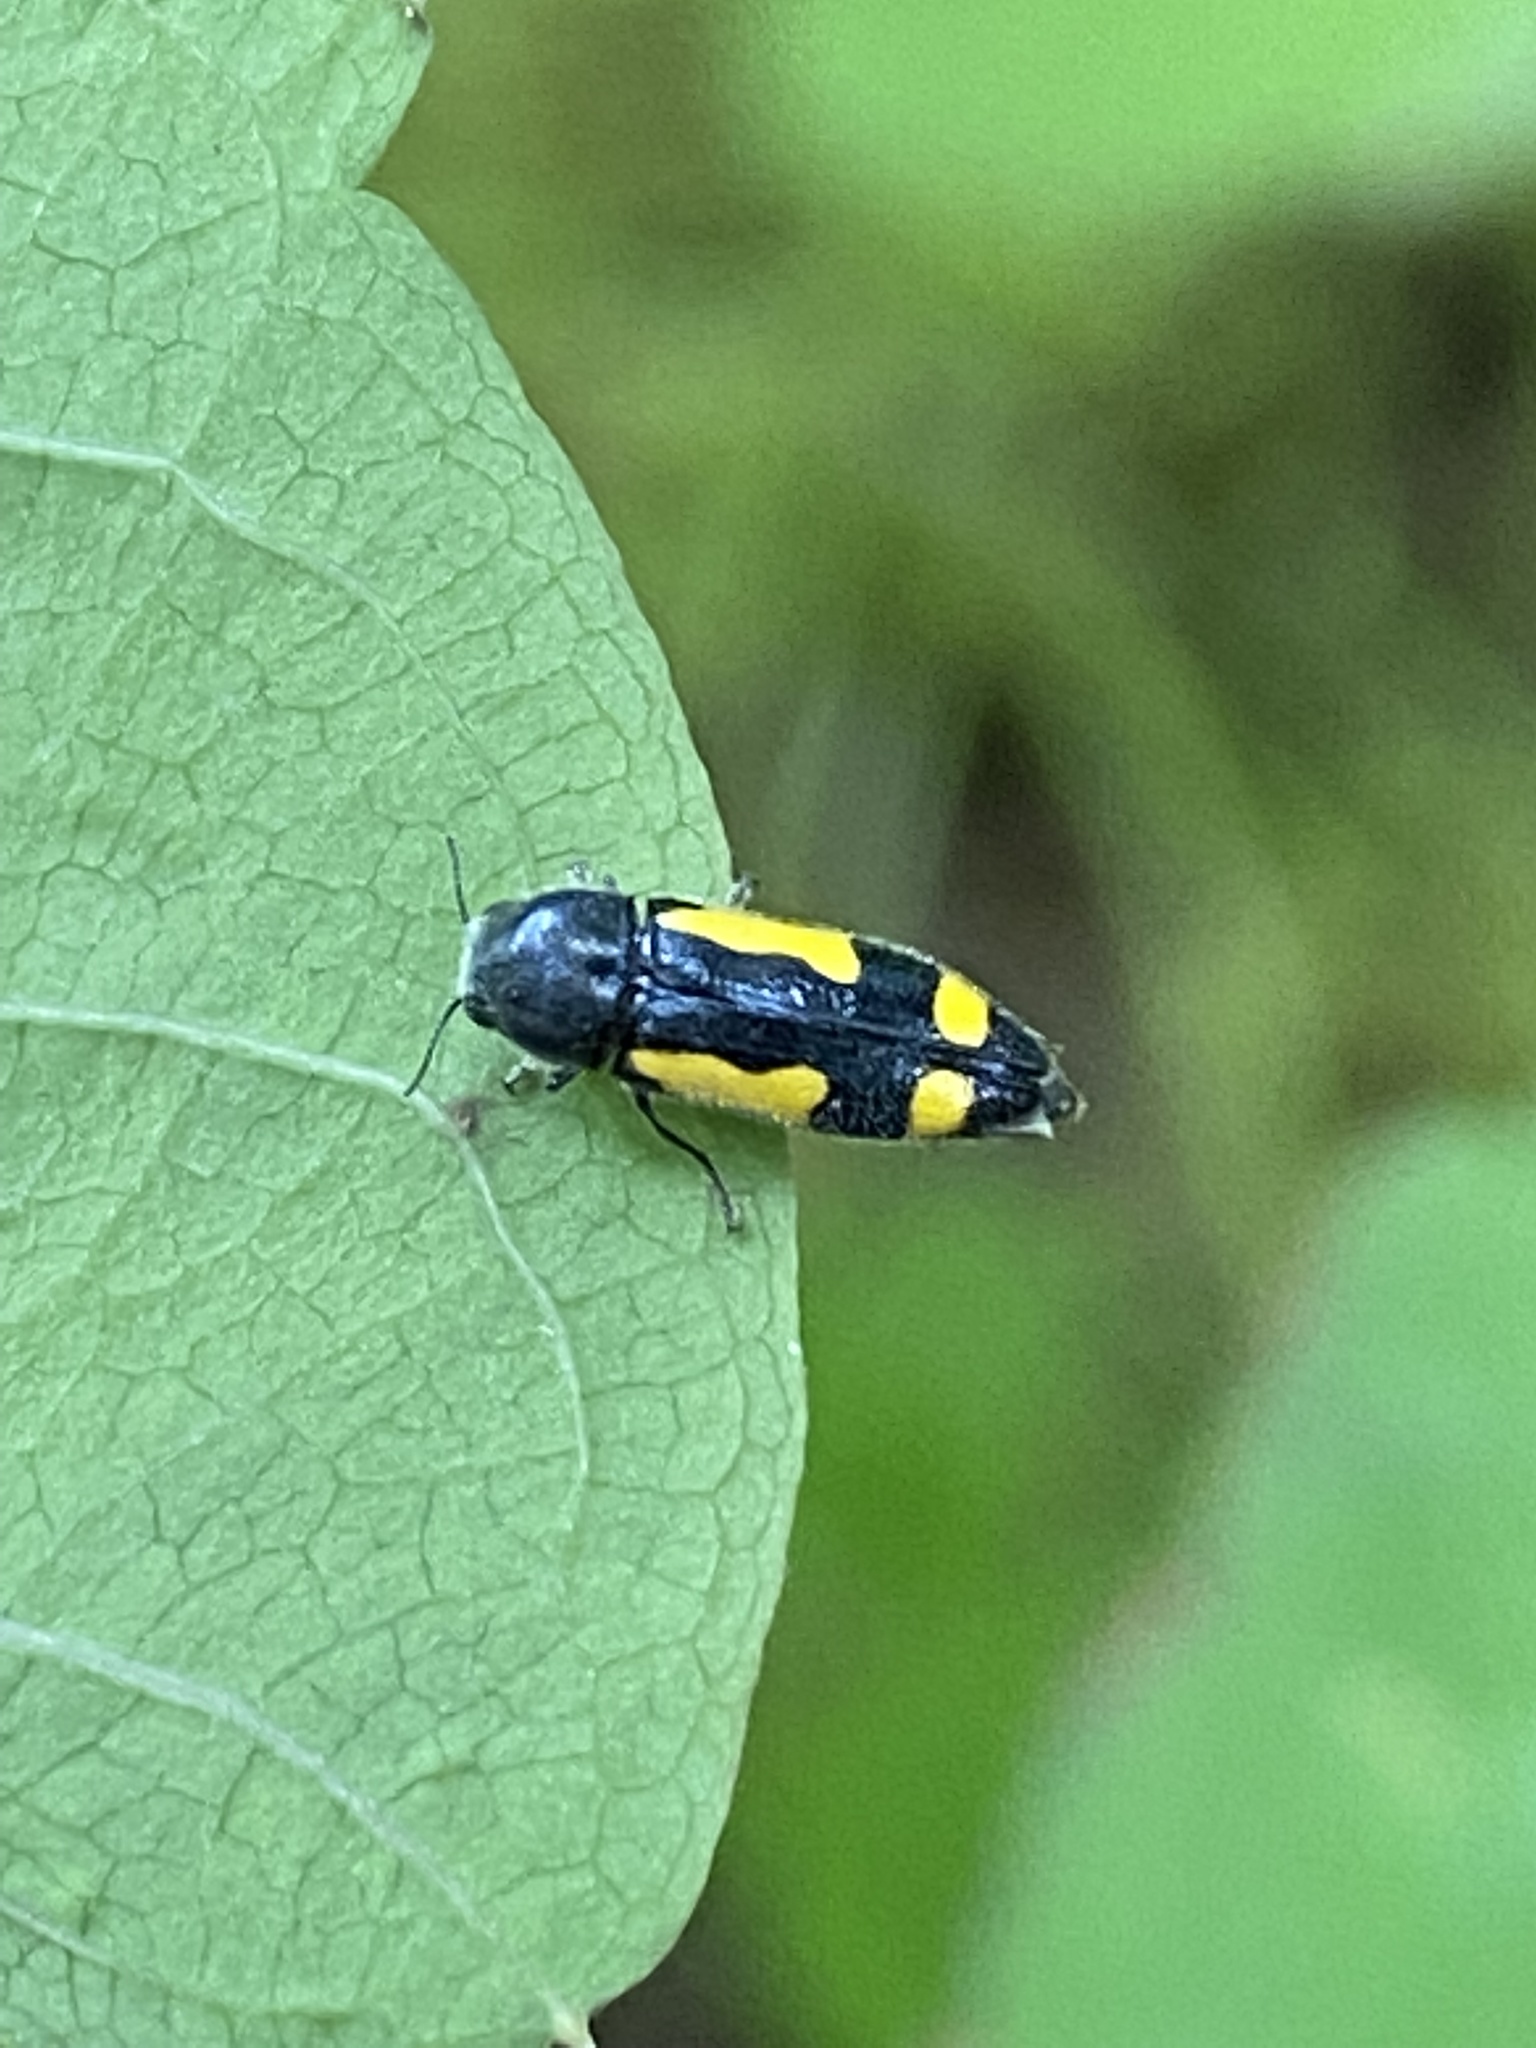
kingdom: Animalia
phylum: Arthropoda
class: Insecta
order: Coleoptera
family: Buprestidae
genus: Ptosima
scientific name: Ptosima gibbicollis
